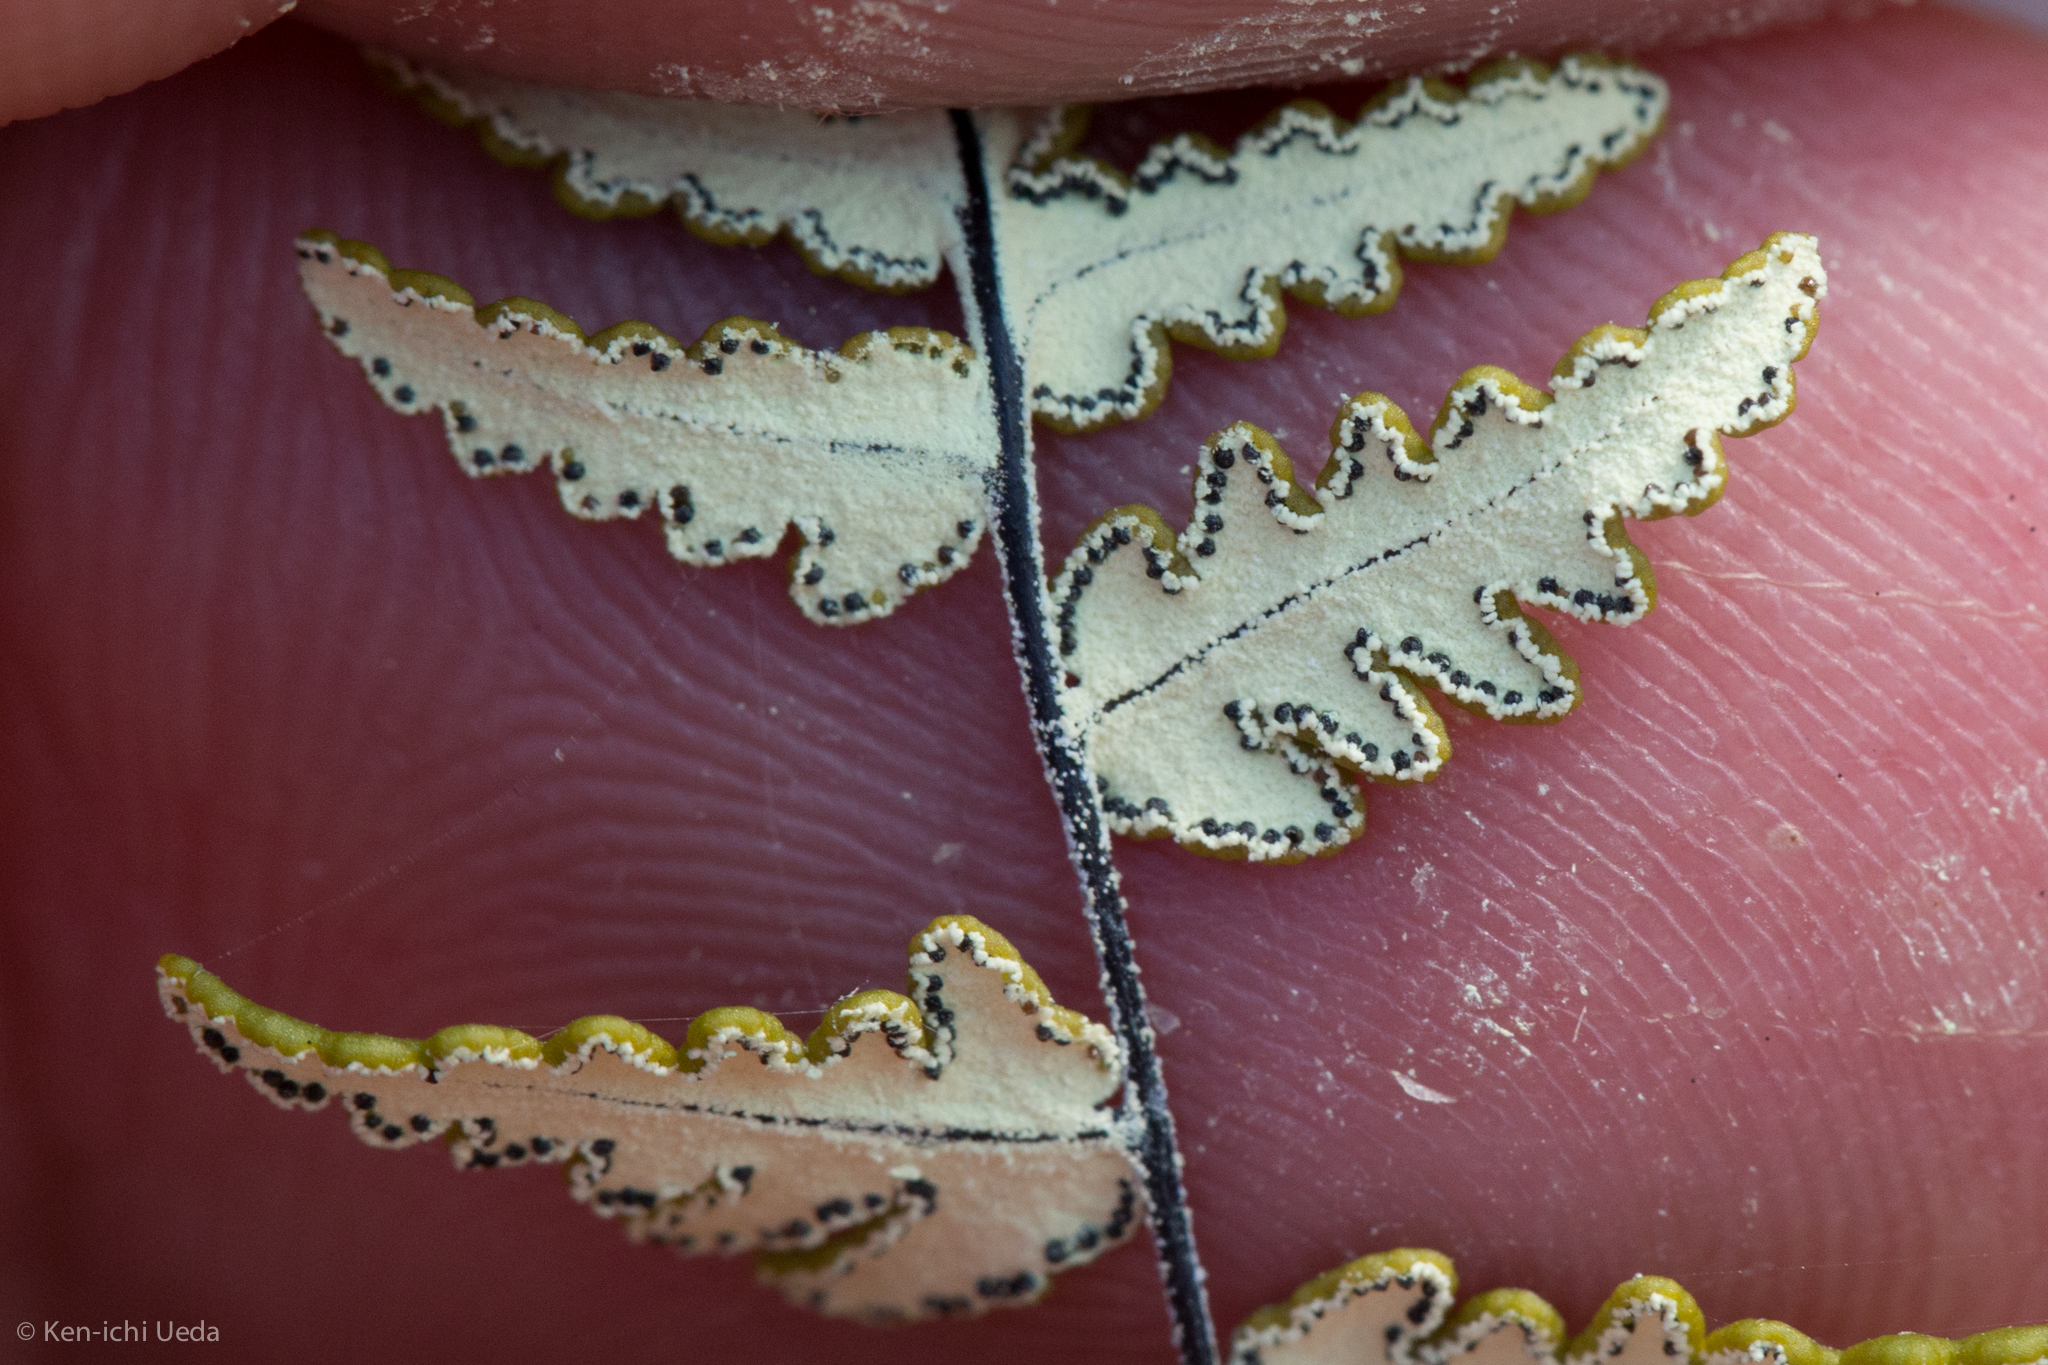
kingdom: Plantae
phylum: Tracheophyta
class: Polypodiopsida
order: Polypodiales
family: Pteridaceae
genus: Notholaena
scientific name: Notholaena lemmonii
